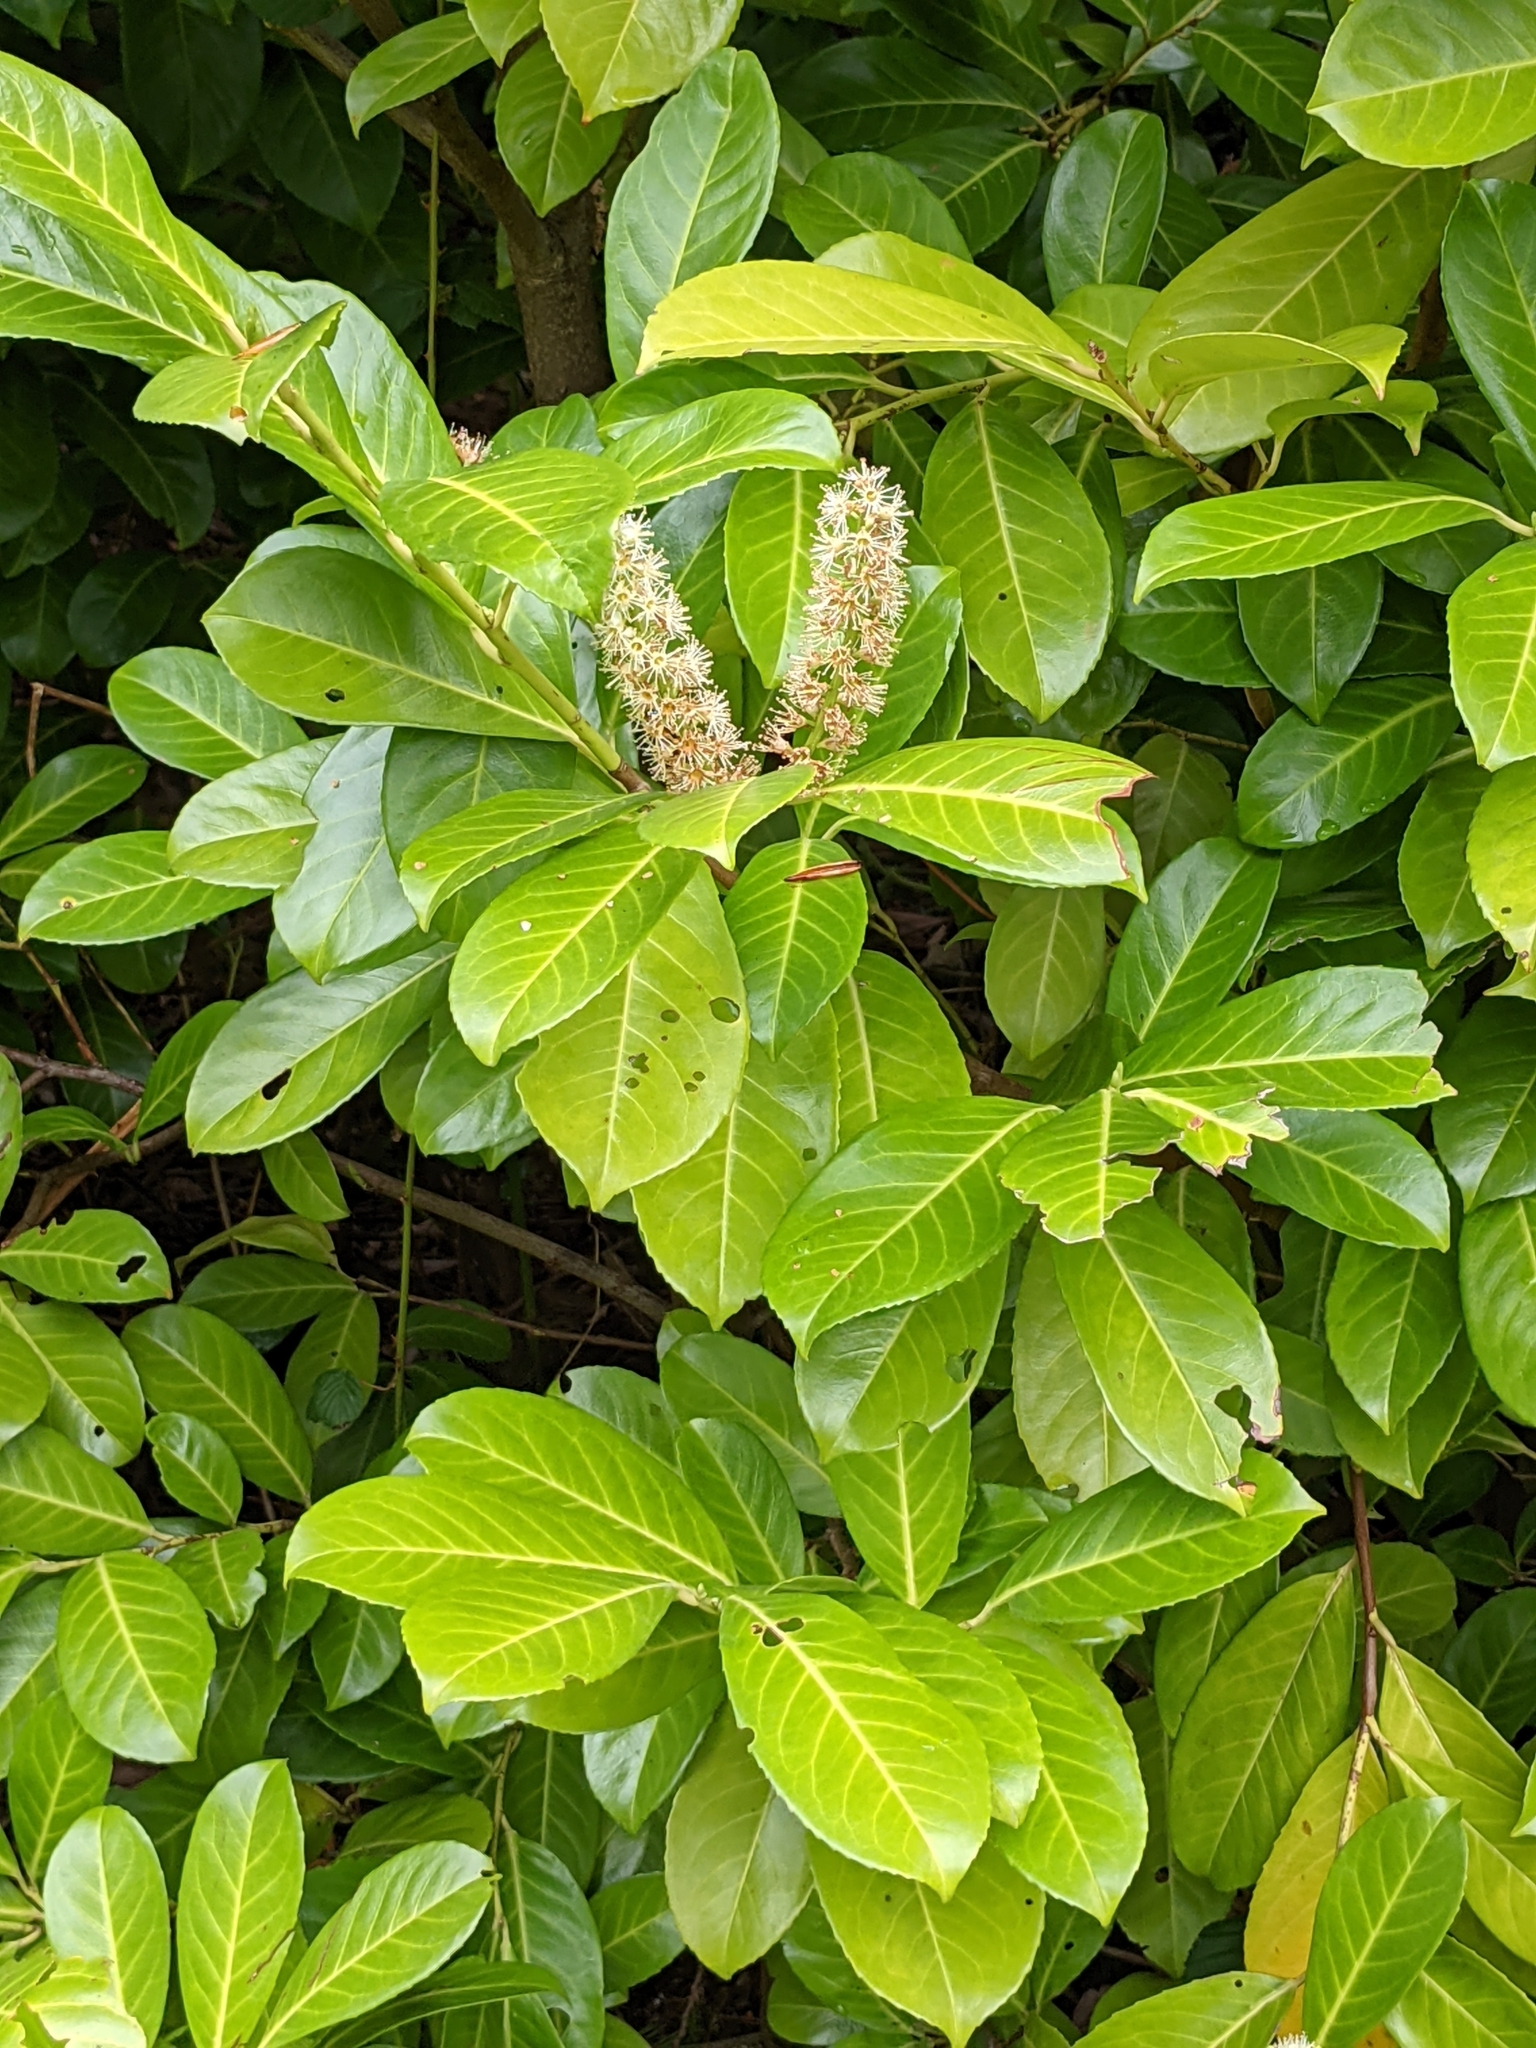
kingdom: Plantae
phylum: Tracheophyta
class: Magnoliopsida
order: Rosales
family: Rosaceae
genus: Prunus
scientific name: Prunus laurocerasus
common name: Cherry laurel
